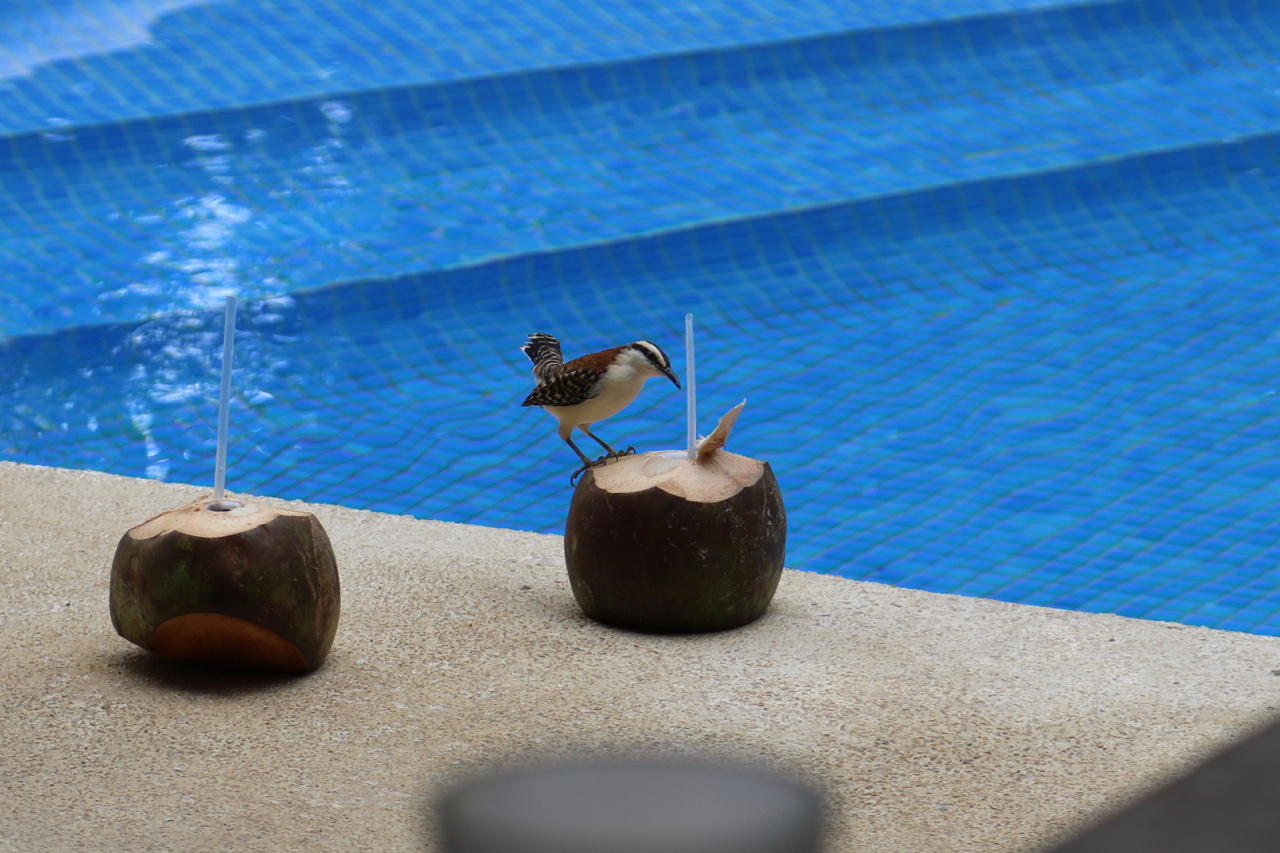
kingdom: Animalia
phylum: Chordata
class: Aves
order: Passeriformes
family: Troglodytidae
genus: Campylorhynchus
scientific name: Campylorhynchus rufinucha
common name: Rufous-naped wren
